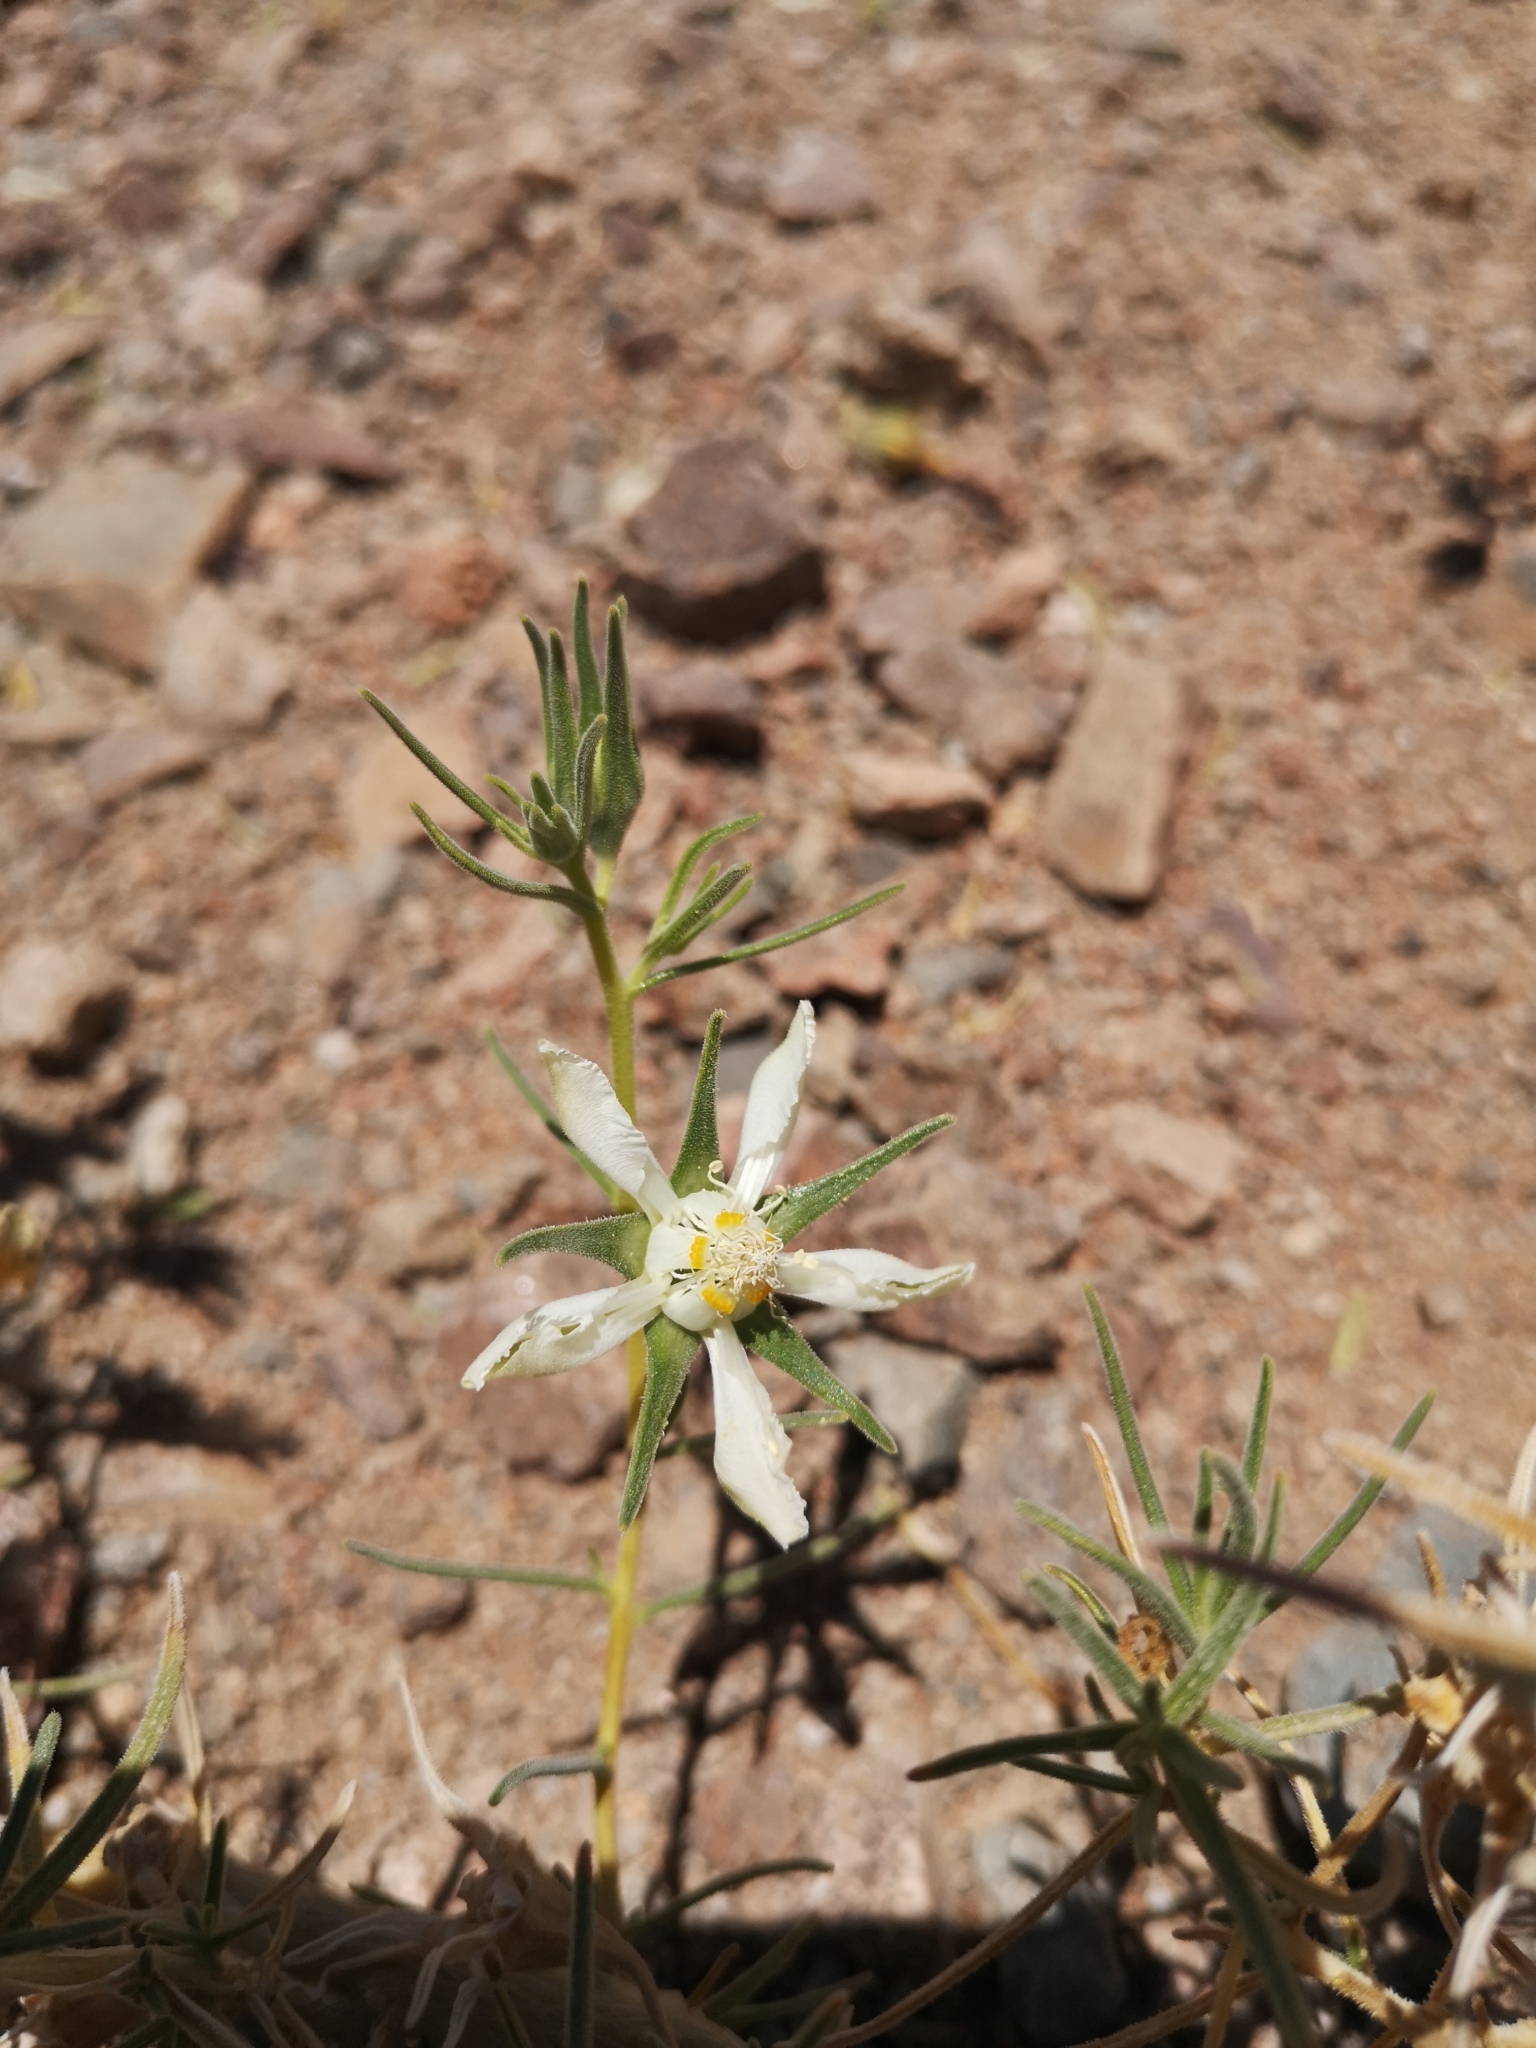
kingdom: Plantae
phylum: Tracheophyta
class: Magnoliopsida
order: Cornales
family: Loasaceae
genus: Huidobria
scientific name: Huidobria chilensis
